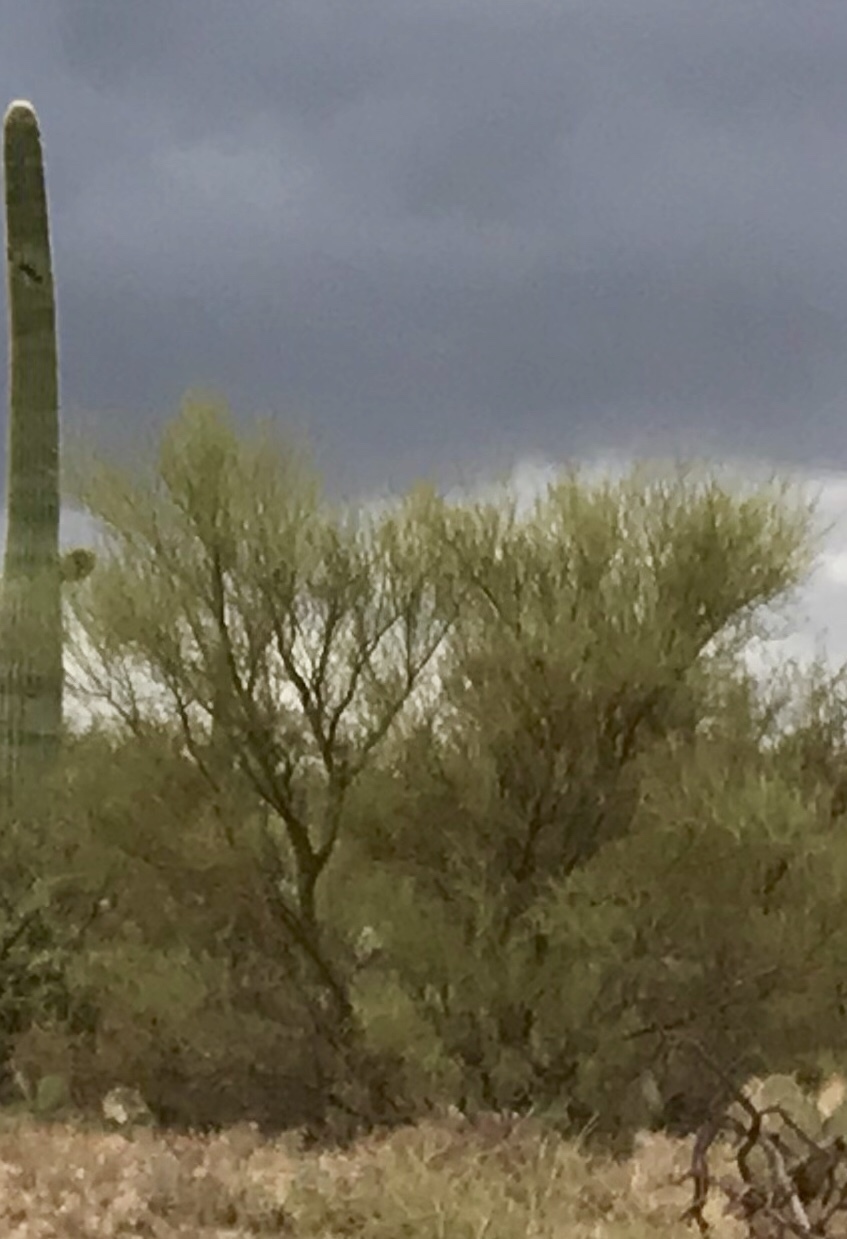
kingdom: Plantae
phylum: Tracheophyta
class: Magnoliopsida
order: Fabales
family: Fabaceae
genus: Parkinsonia
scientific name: Parkinsonia microphylla
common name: Yellow paloverde
